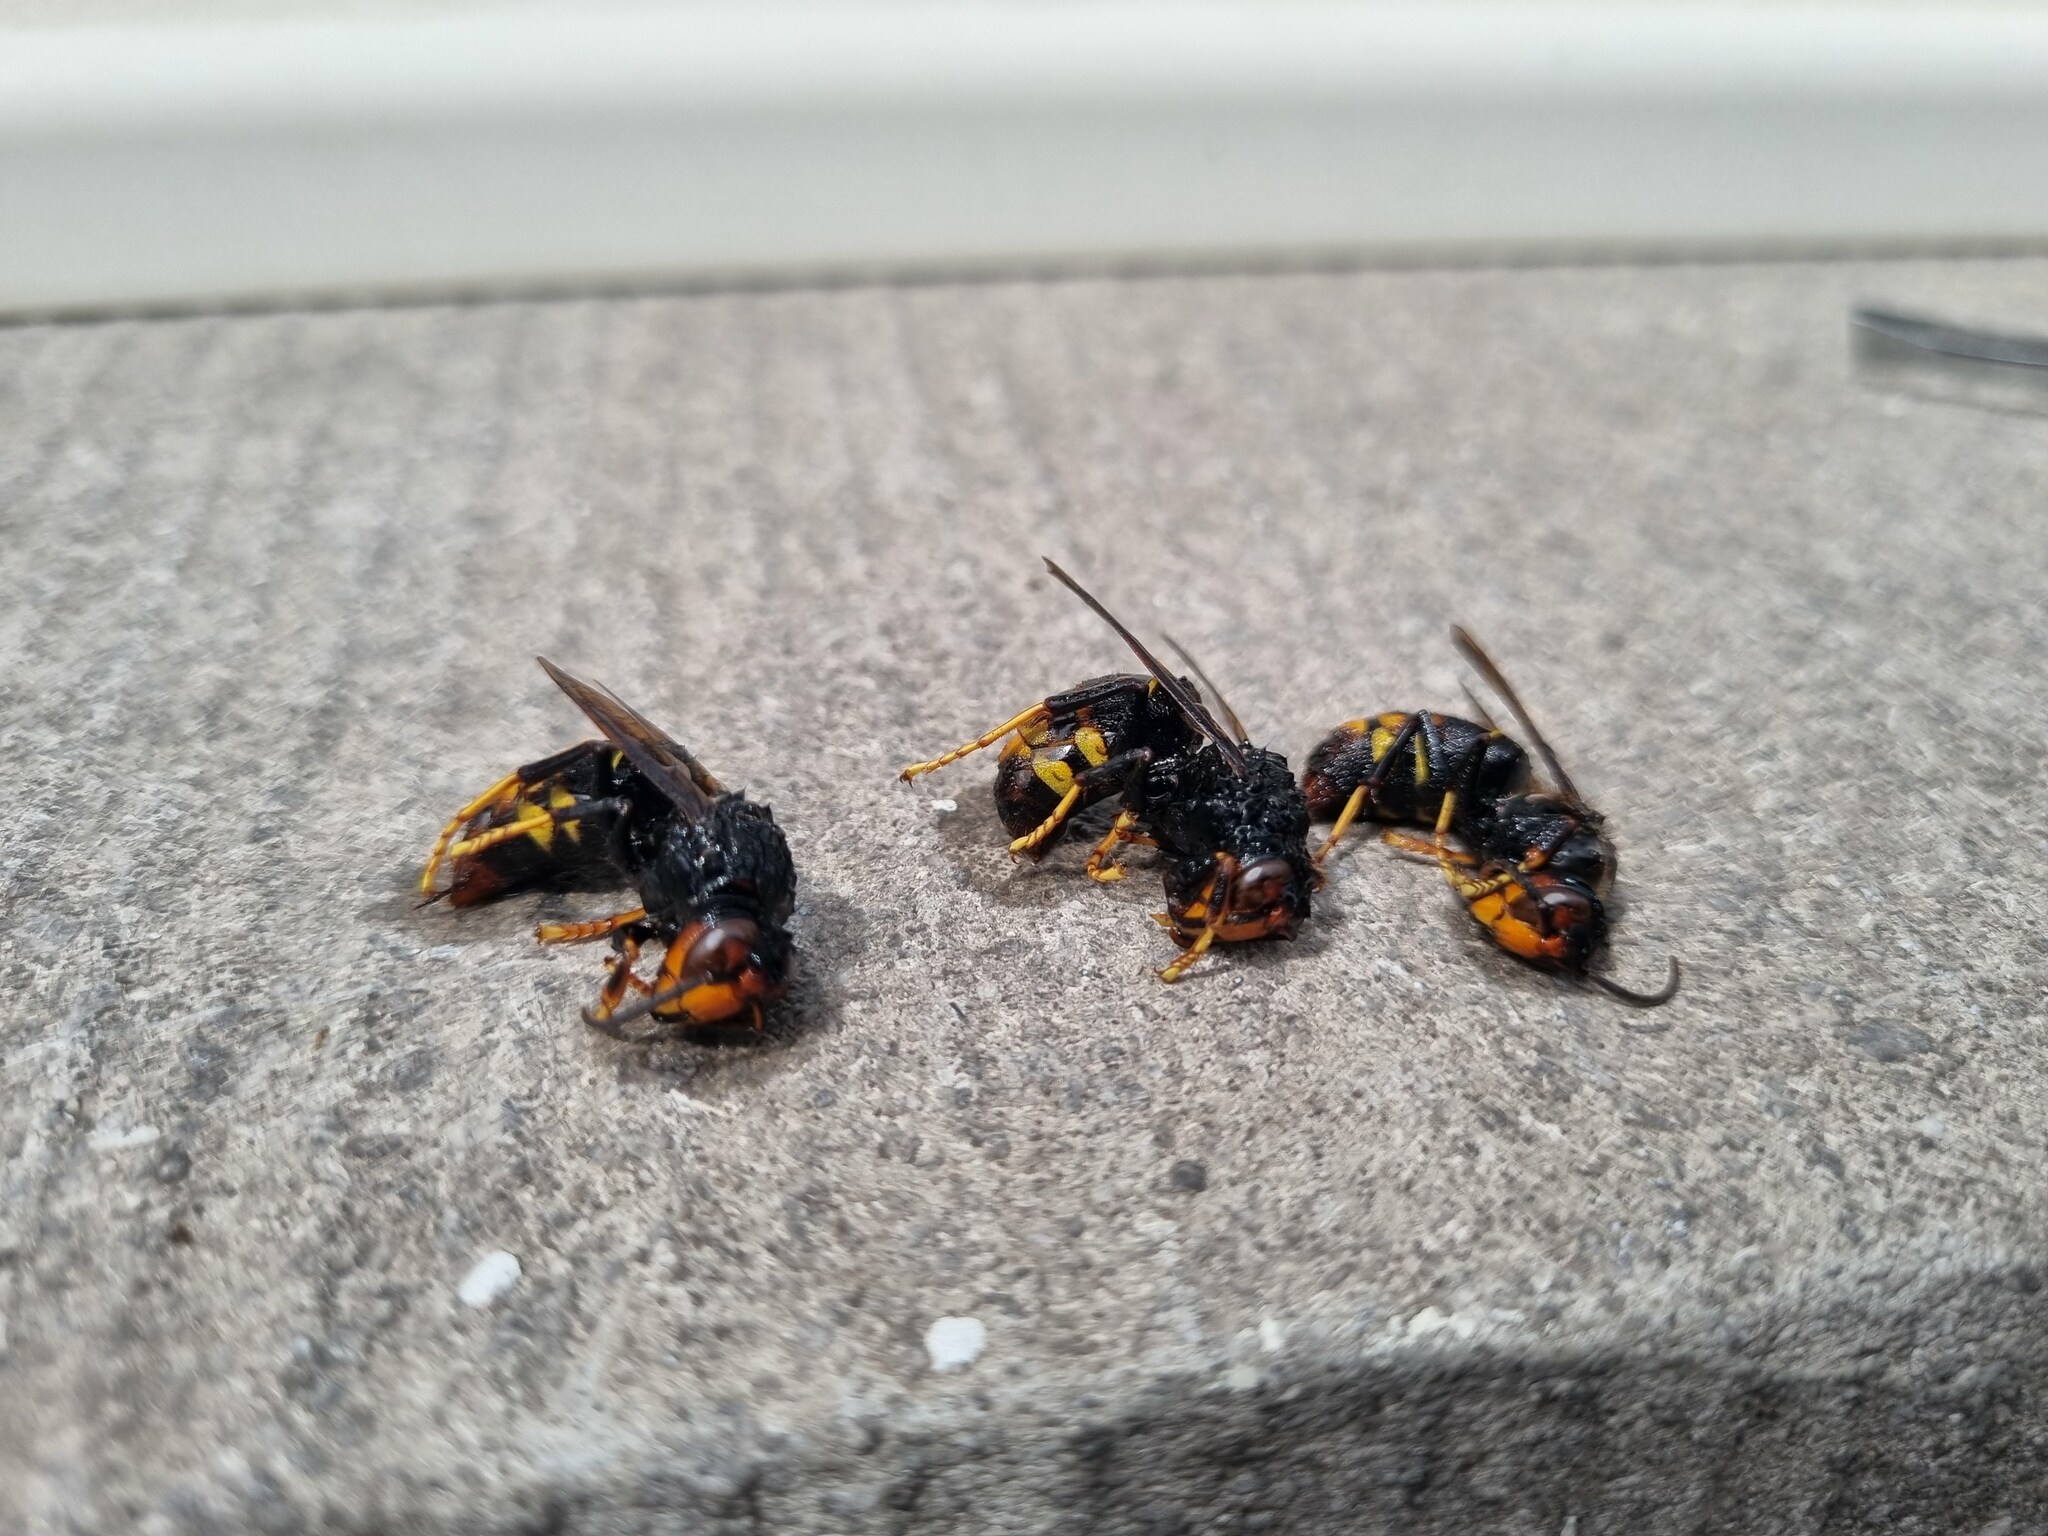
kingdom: Animalia
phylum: Arthropoda
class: Insecta
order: Hymenoptera
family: Vespidae
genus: Vespa
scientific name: Vespa velutina
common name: Asian hornet
